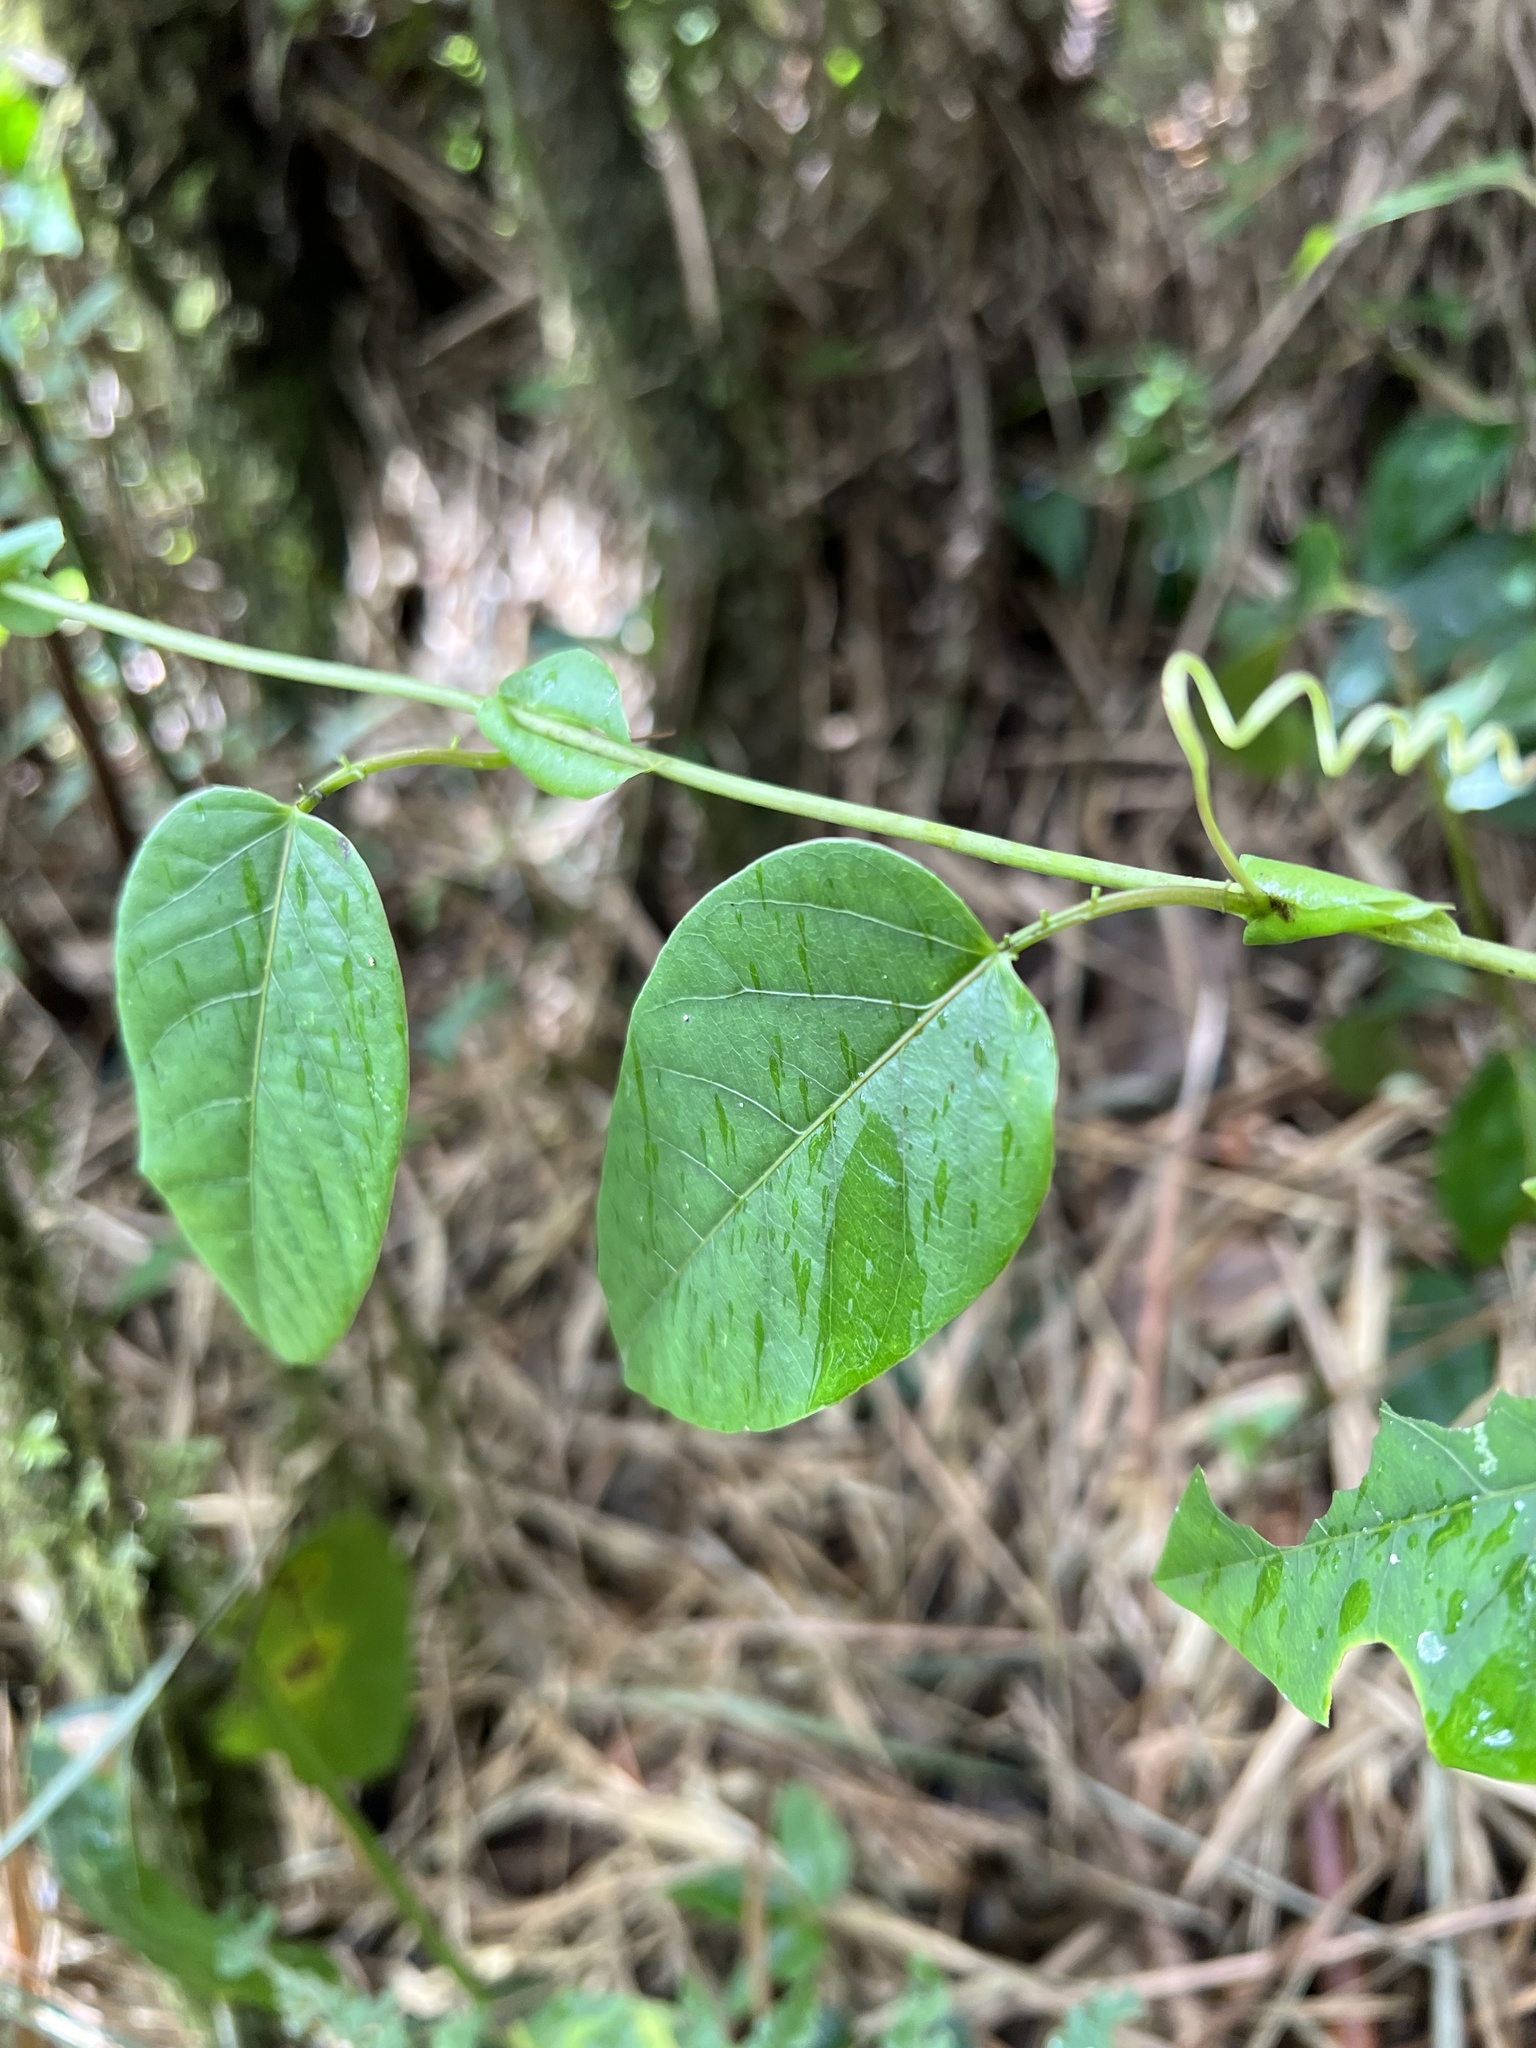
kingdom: Plantae
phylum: Tracheophyta
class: Magnoliopsida
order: Malpighiales
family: Passifloraceae
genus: Passiflora
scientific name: Passiflora longipes
